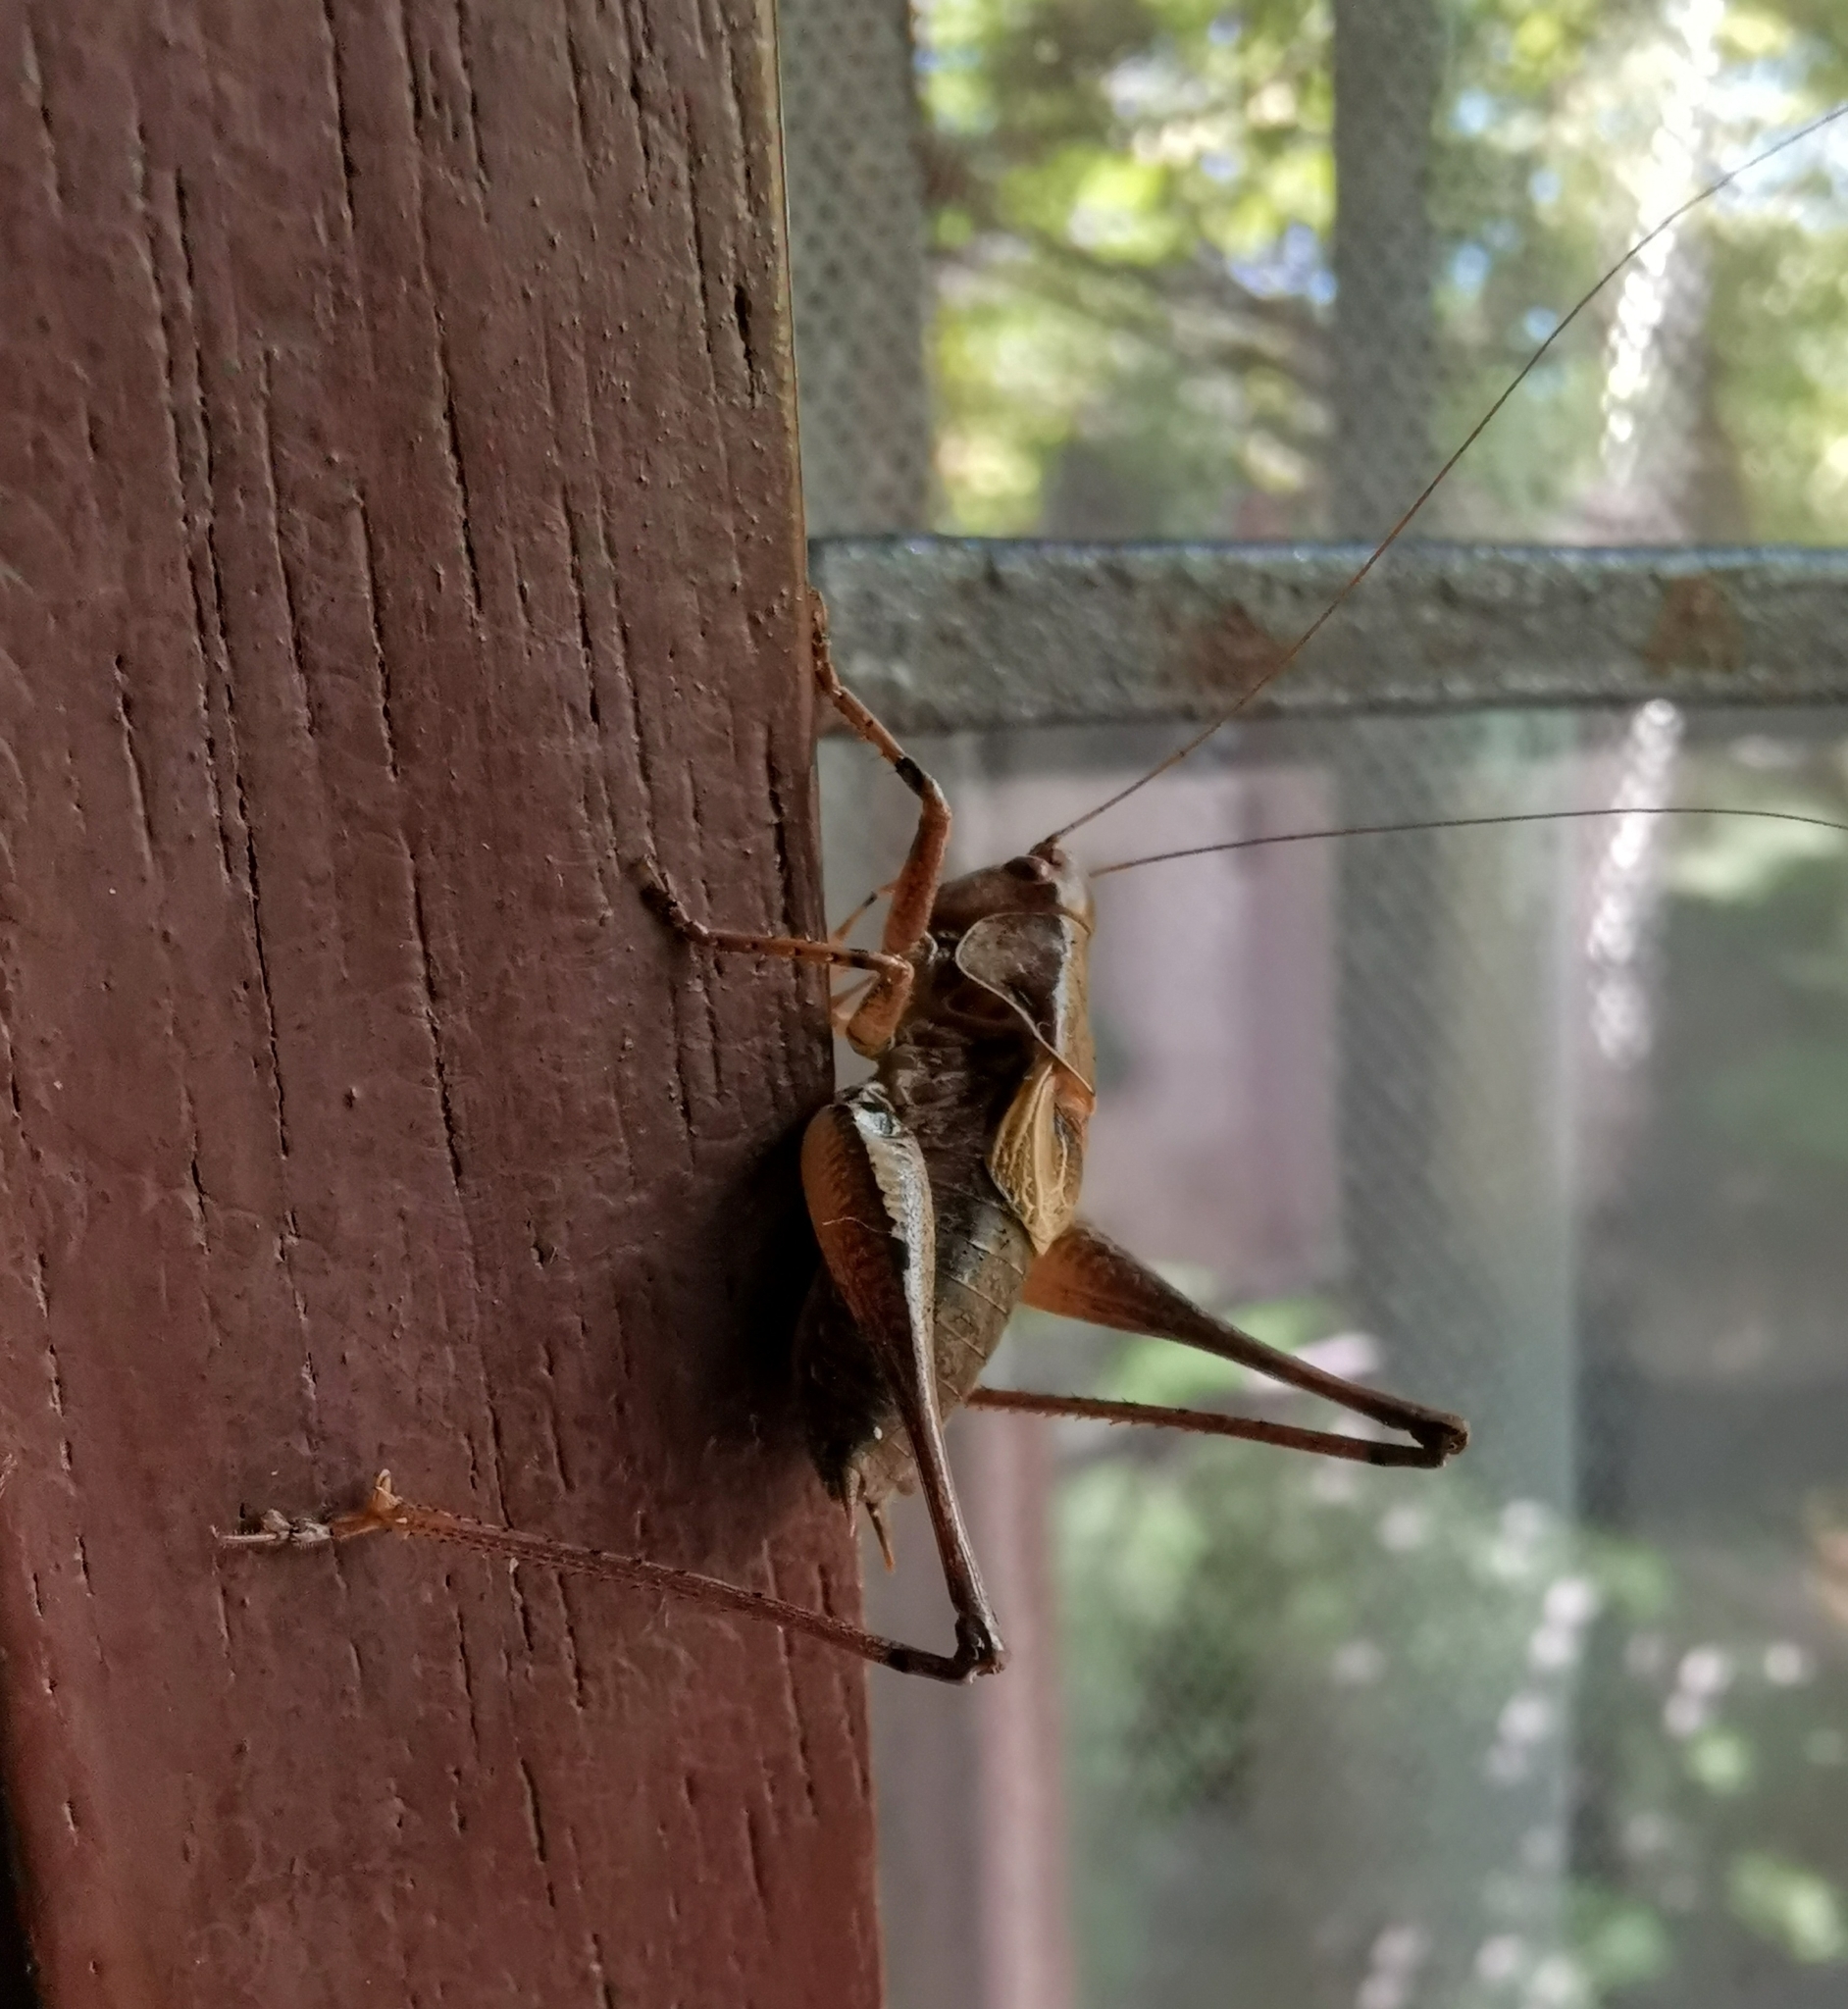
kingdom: Animalia
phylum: Arthropoda
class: Insecta
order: Orthoptera
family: Tettigoniidae
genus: Pholidoptera
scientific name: Pholidoptera griseoaptera
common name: Dark bush-cricket
